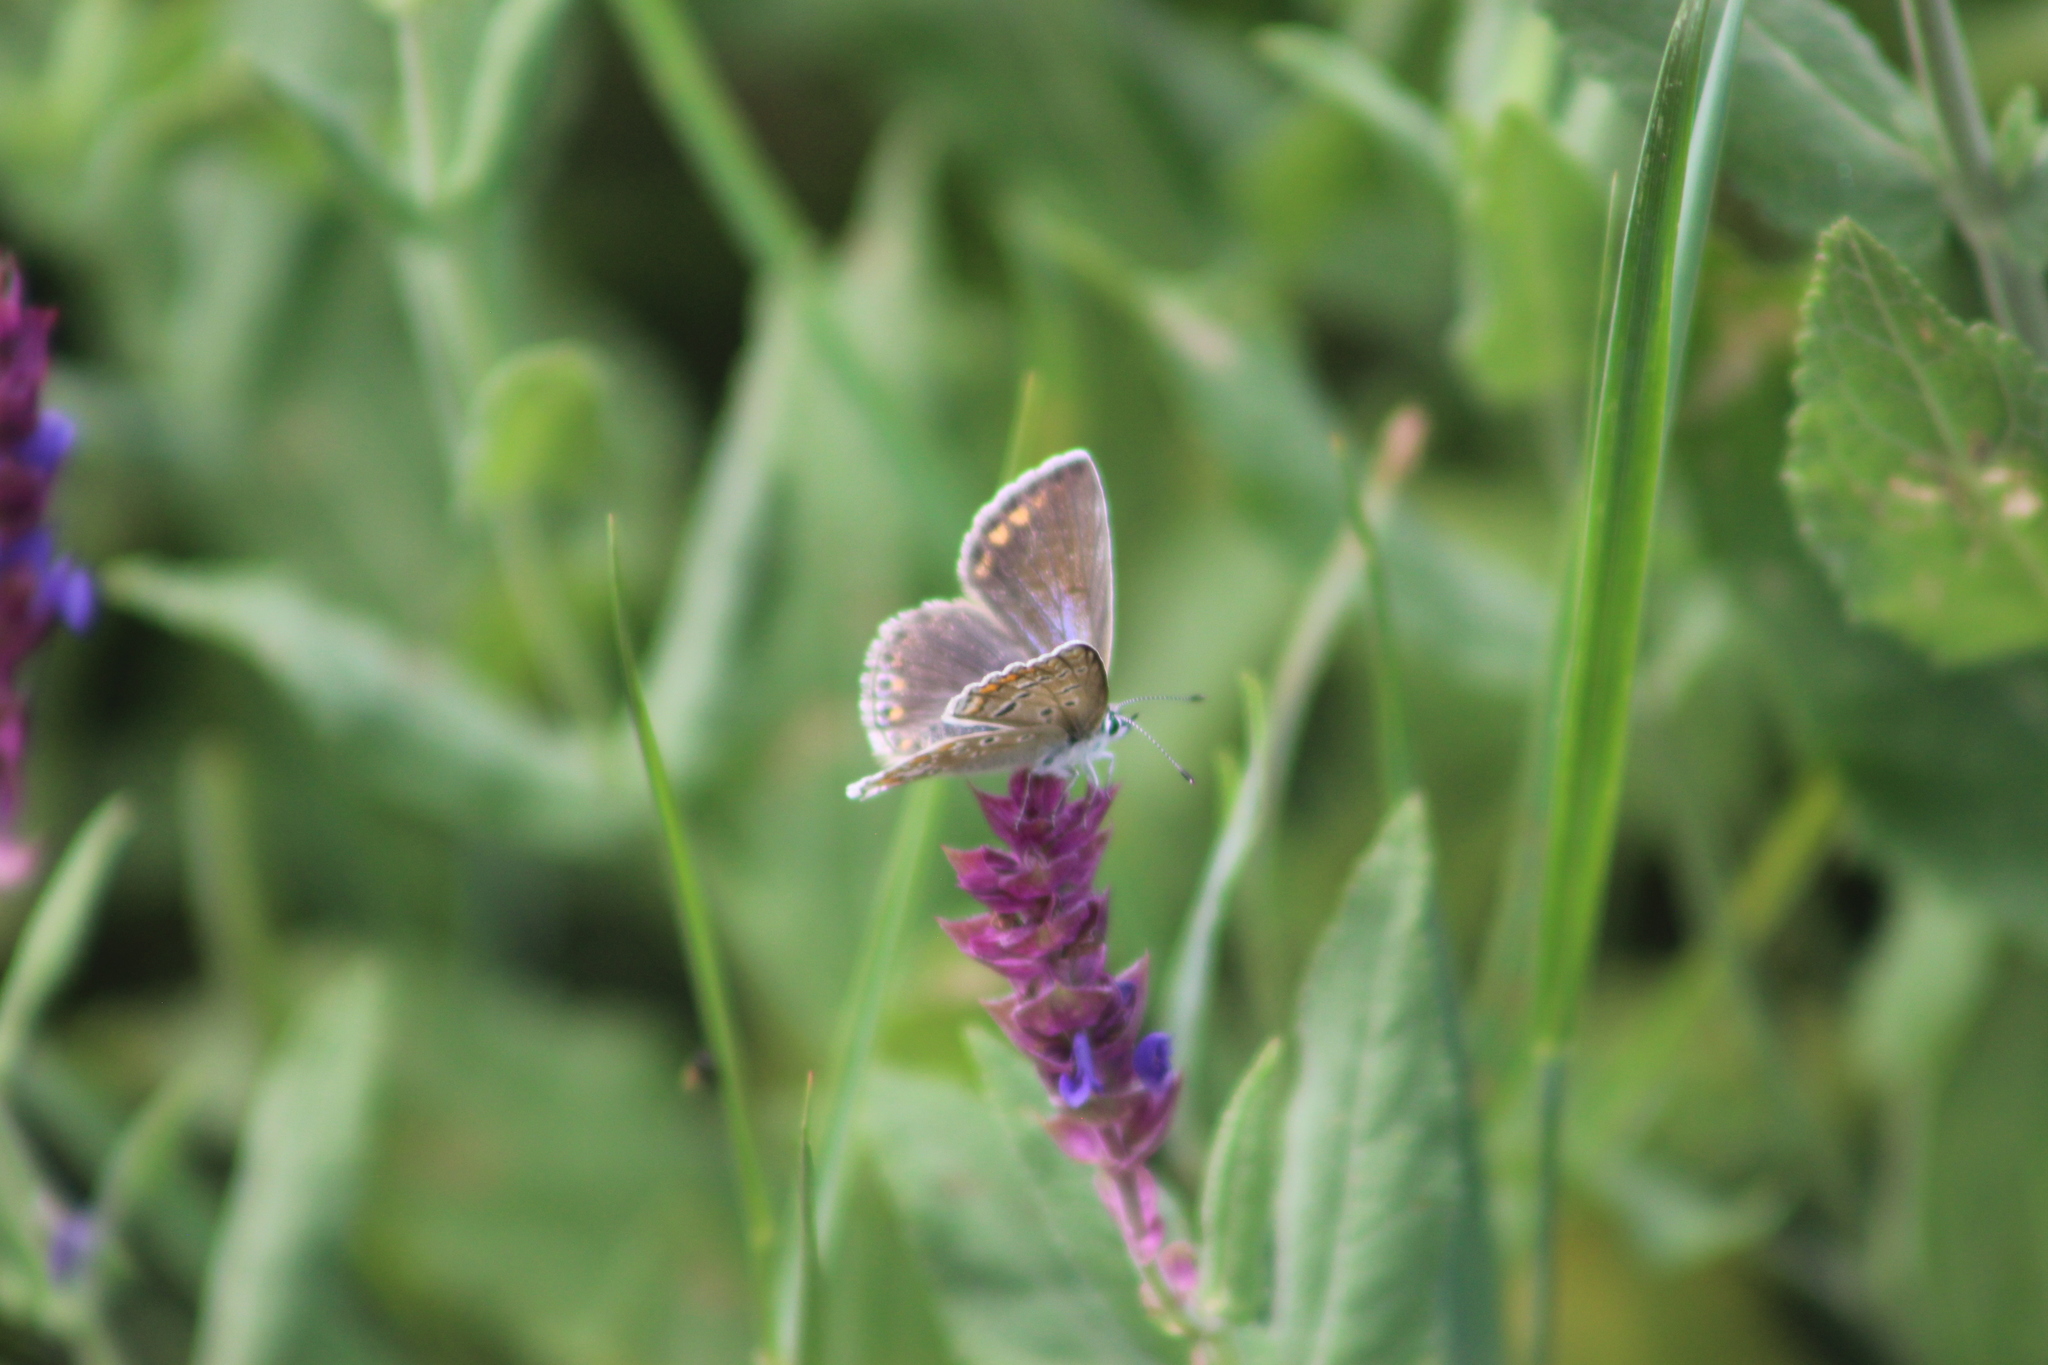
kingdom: Animalia
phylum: Arthropoda
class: Insecta
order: Lepidoptera
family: Lycaenidae
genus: Polyommatus
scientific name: Polyommatus icarus
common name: Common blue
